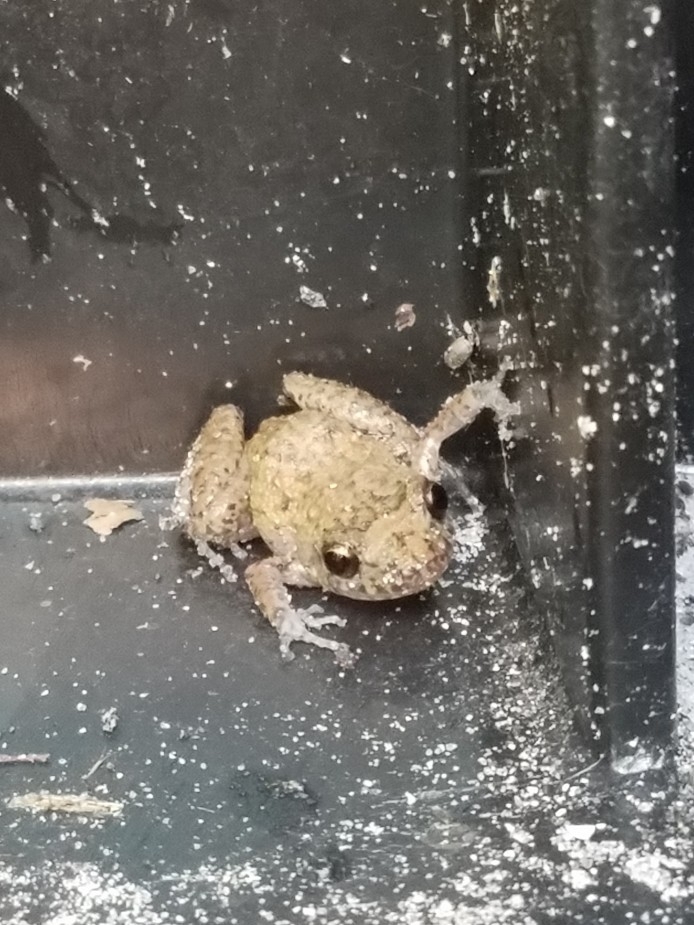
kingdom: Animalia
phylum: Chordata
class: Amphibia
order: Anura
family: Eleutherodactylidae
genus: Eleutherodactylus
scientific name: Eleutherodactylus planirostris
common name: Greenhouse frog
